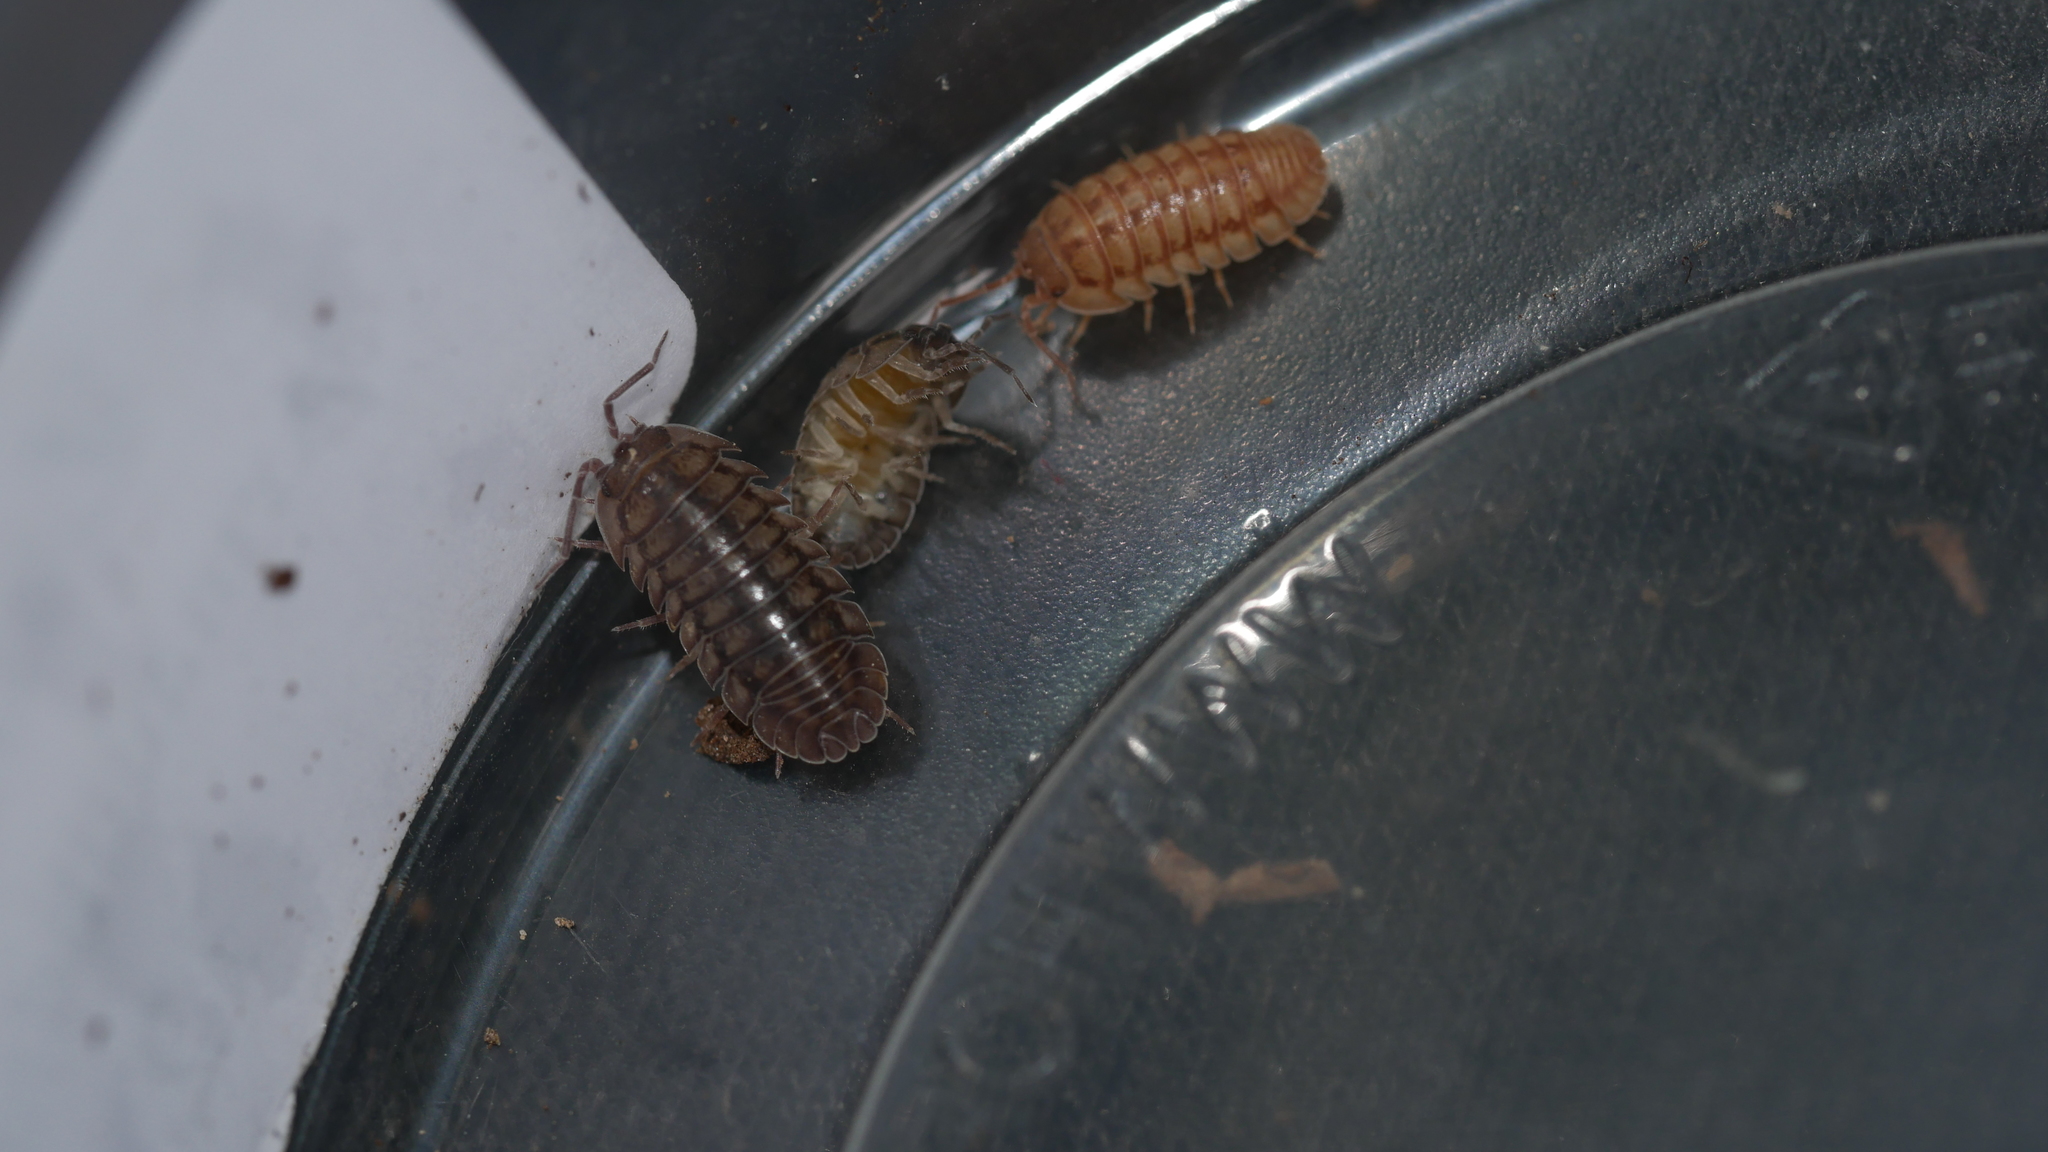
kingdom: Animalia
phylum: Arthropoda
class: Malacostraca
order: Isopoda
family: Armadillidiidae
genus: Armadillidium
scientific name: Armadillidium nasatum
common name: Isopod
